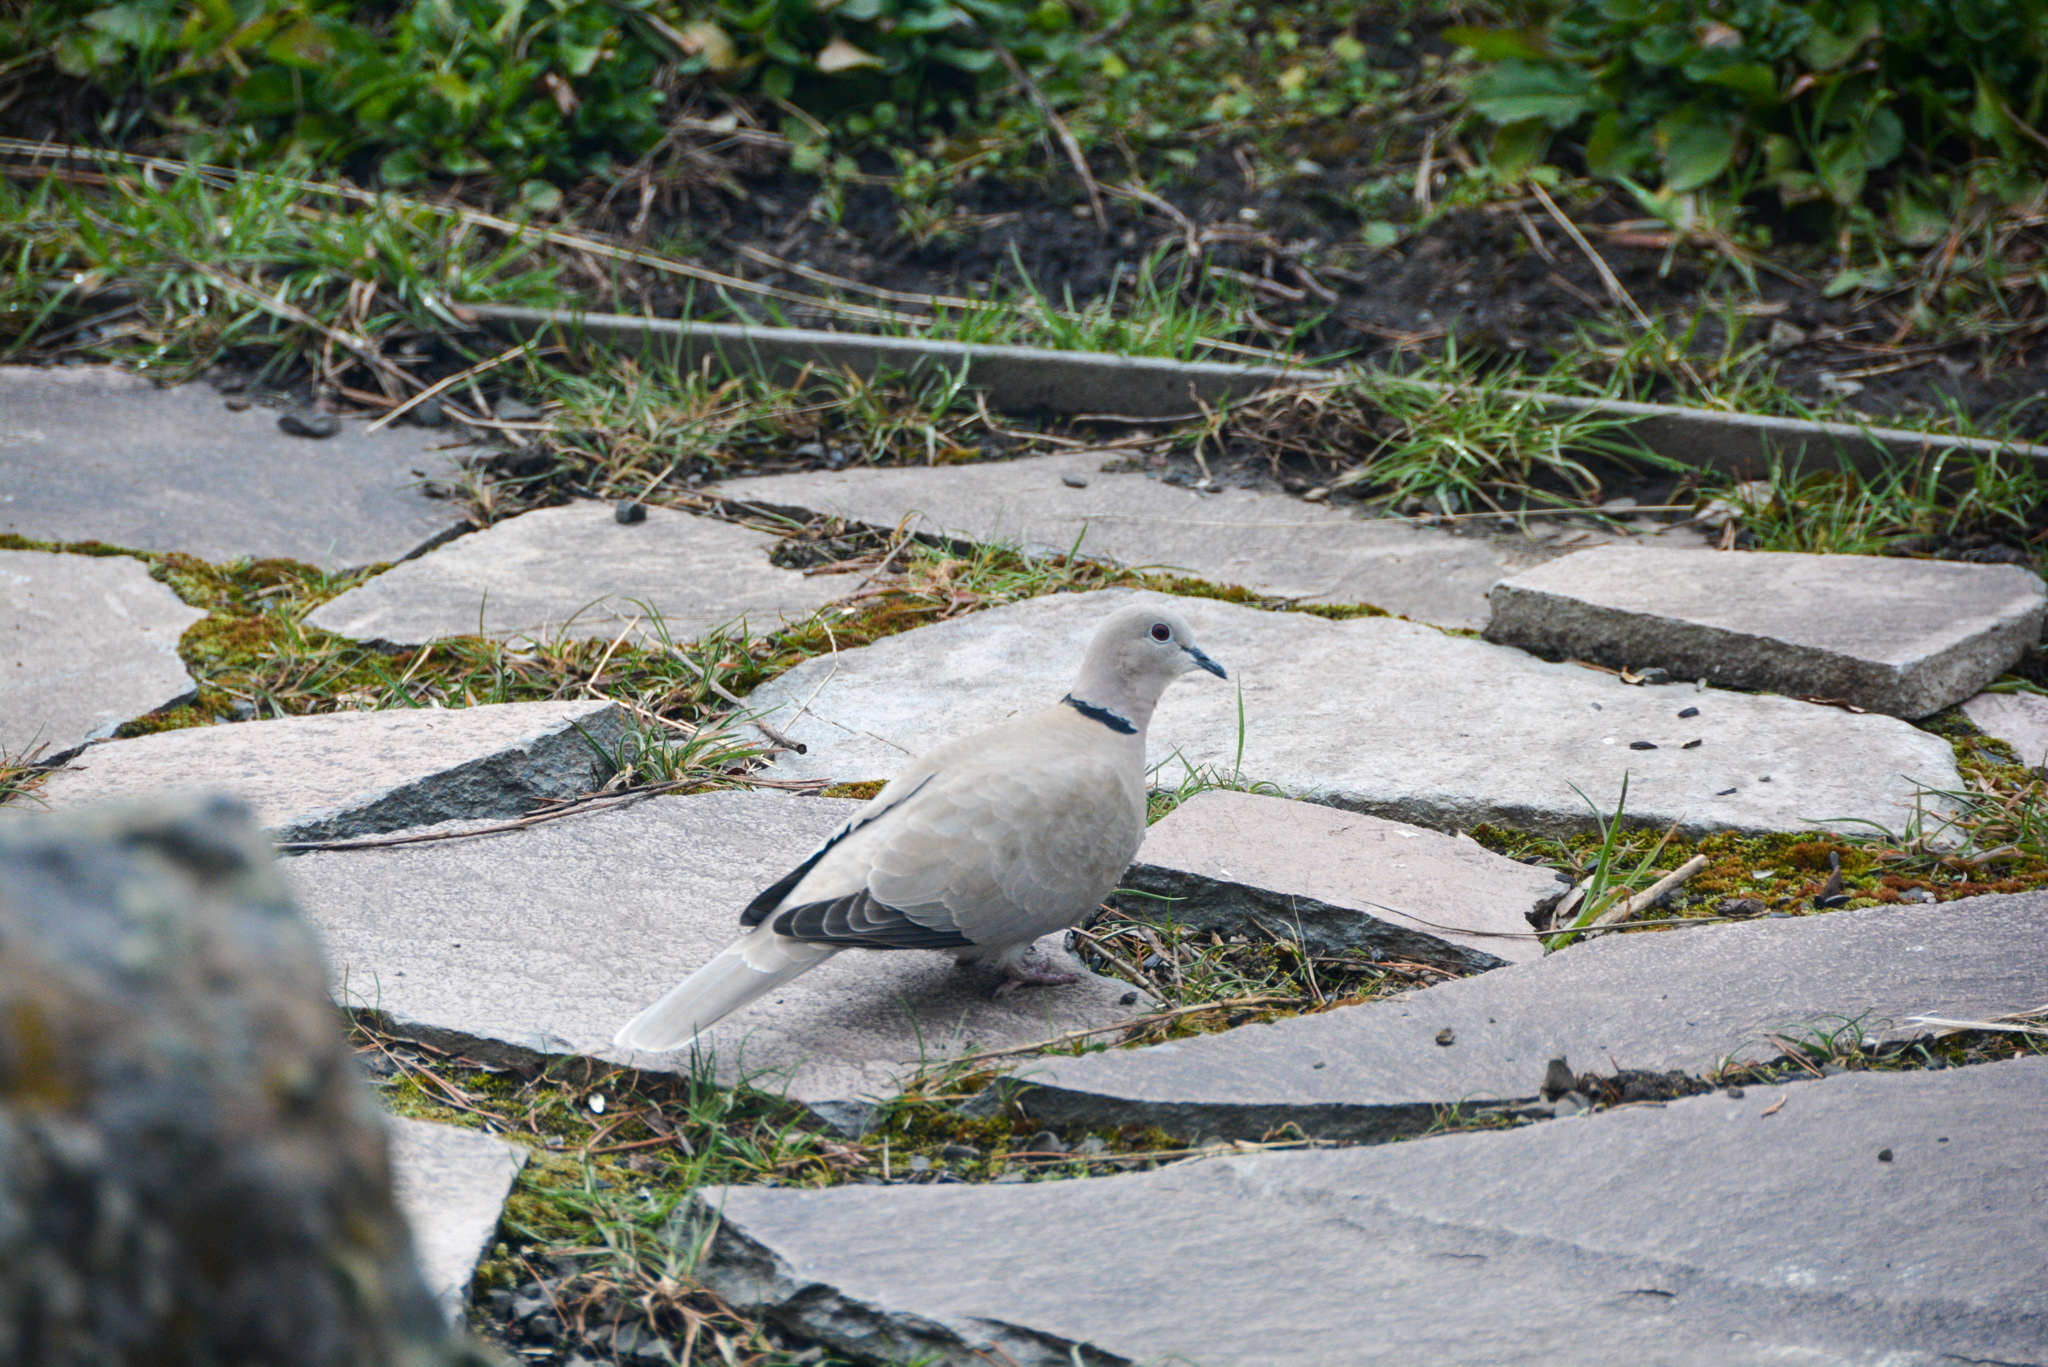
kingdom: Animalia
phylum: Chordata
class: Aves
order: Columbiformes
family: Columbidae
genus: Streptopelia
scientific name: Streptopelia decaocto
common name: Eurasian collared dove
